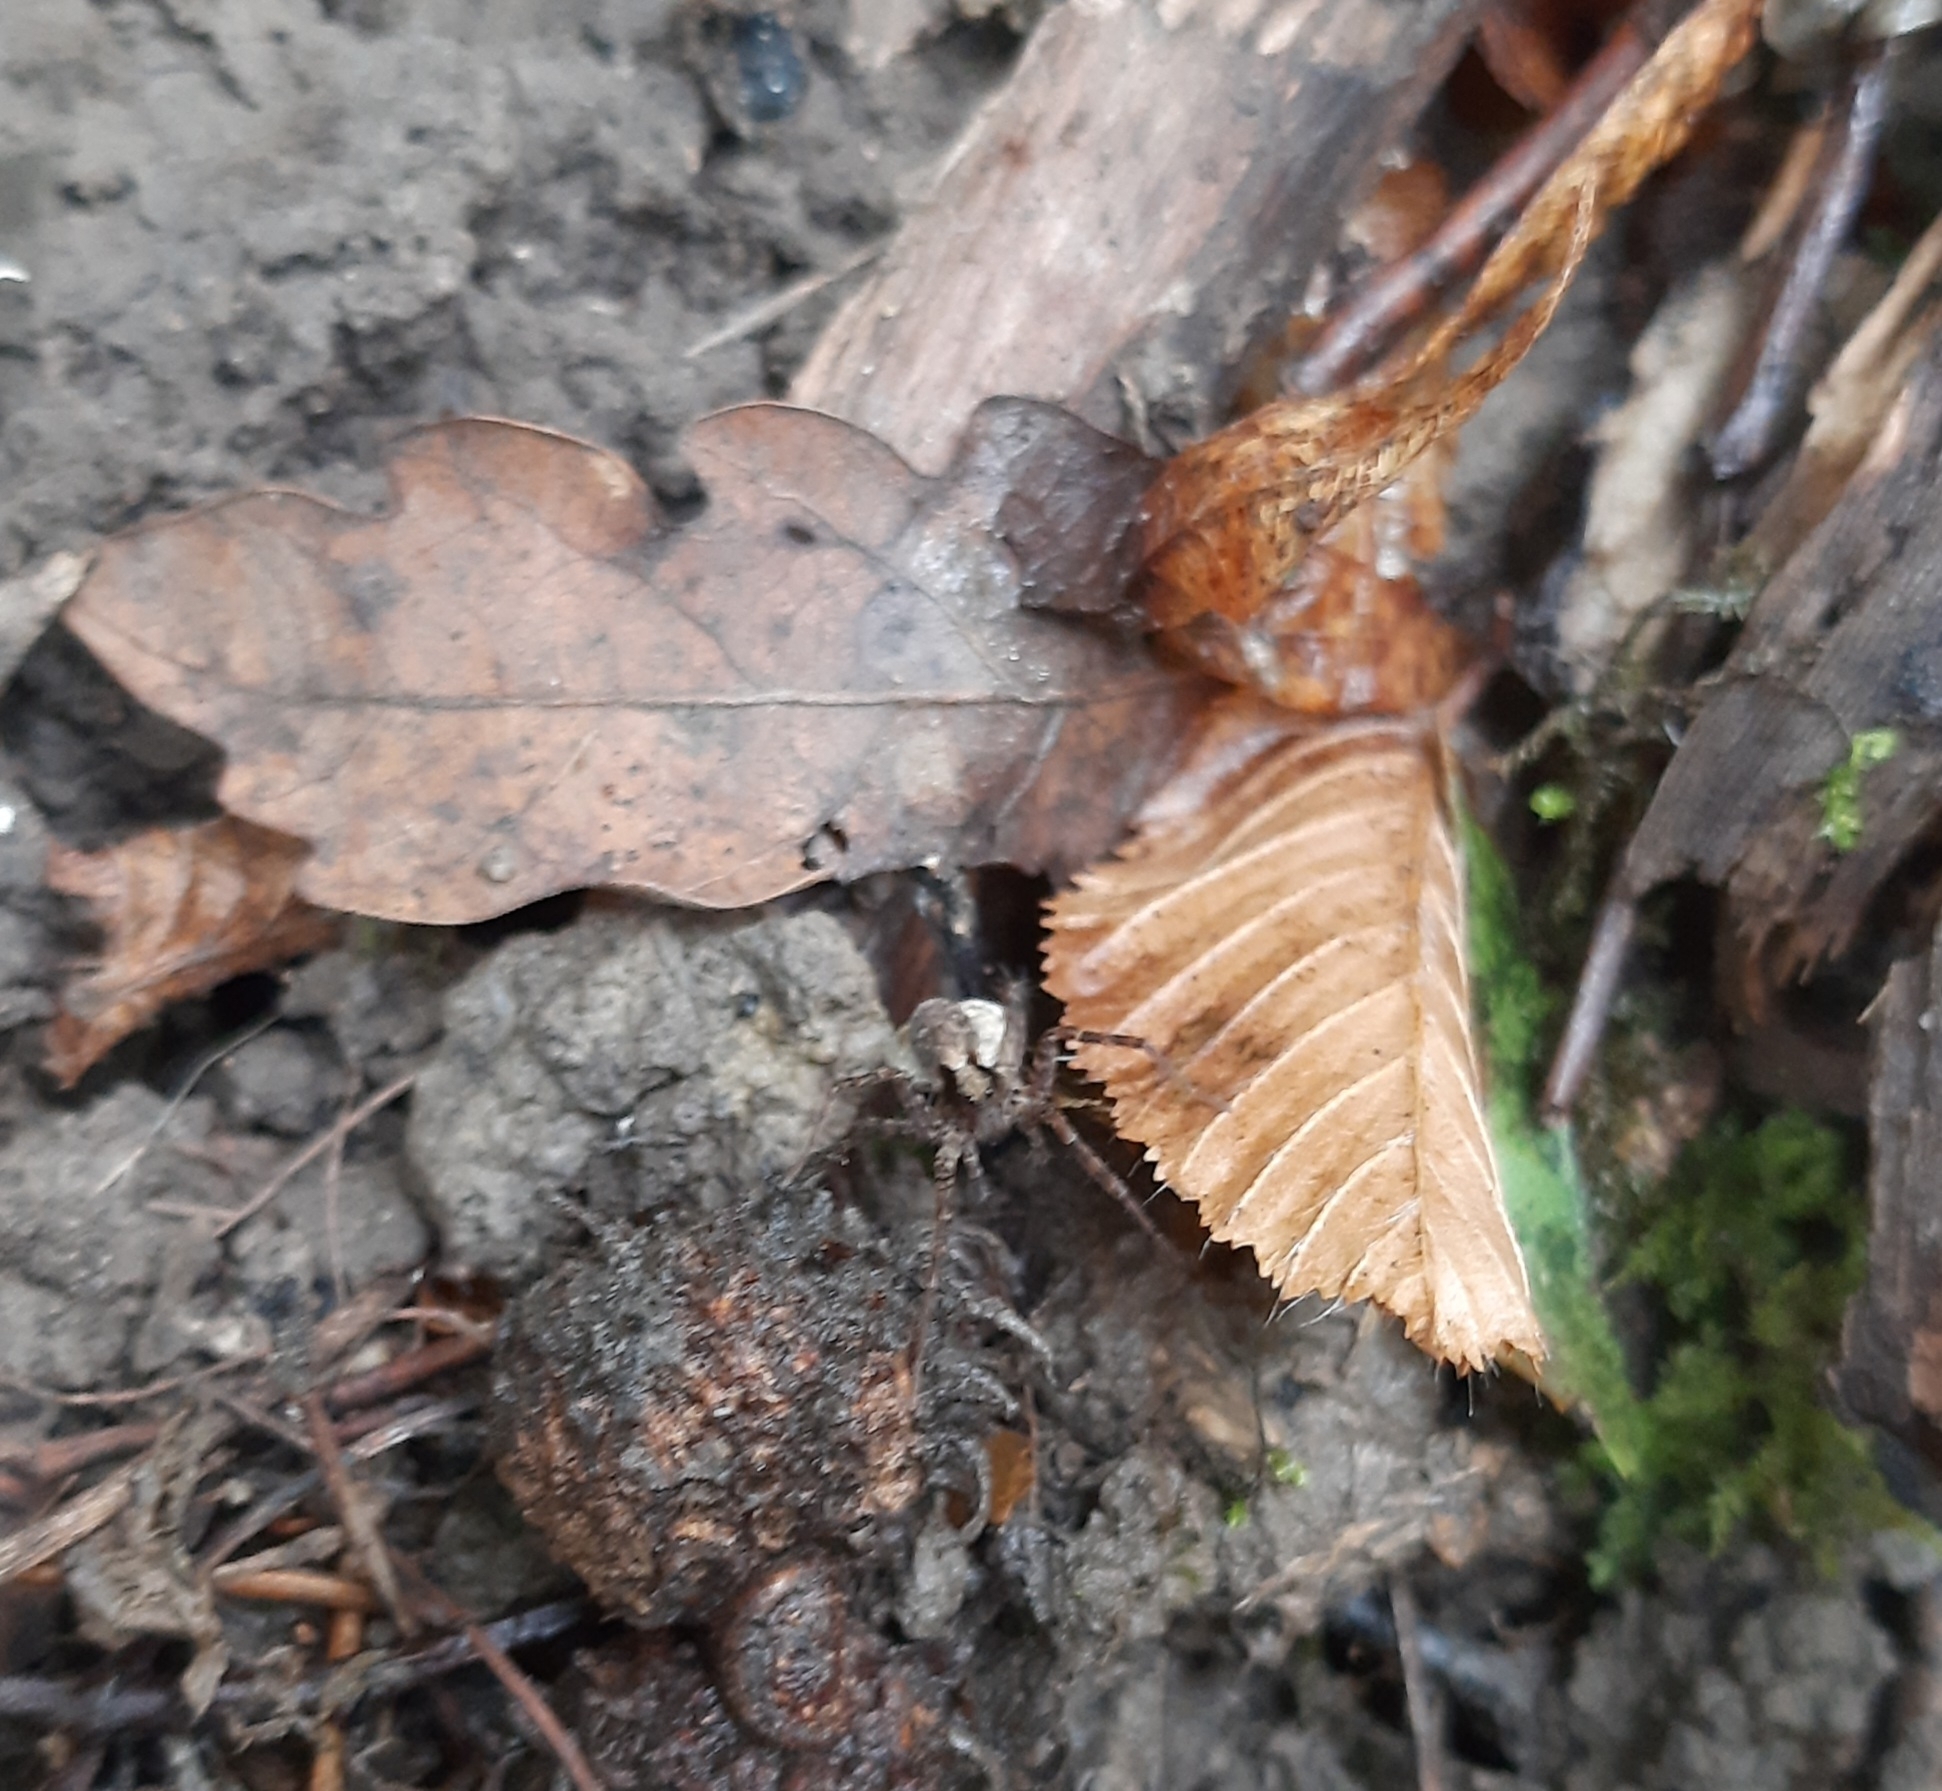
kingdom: Animalia
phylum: Arthropoda
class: Arachnida
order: Araneae
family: Lycosidae
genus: Pardosa
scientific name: Pardosa
